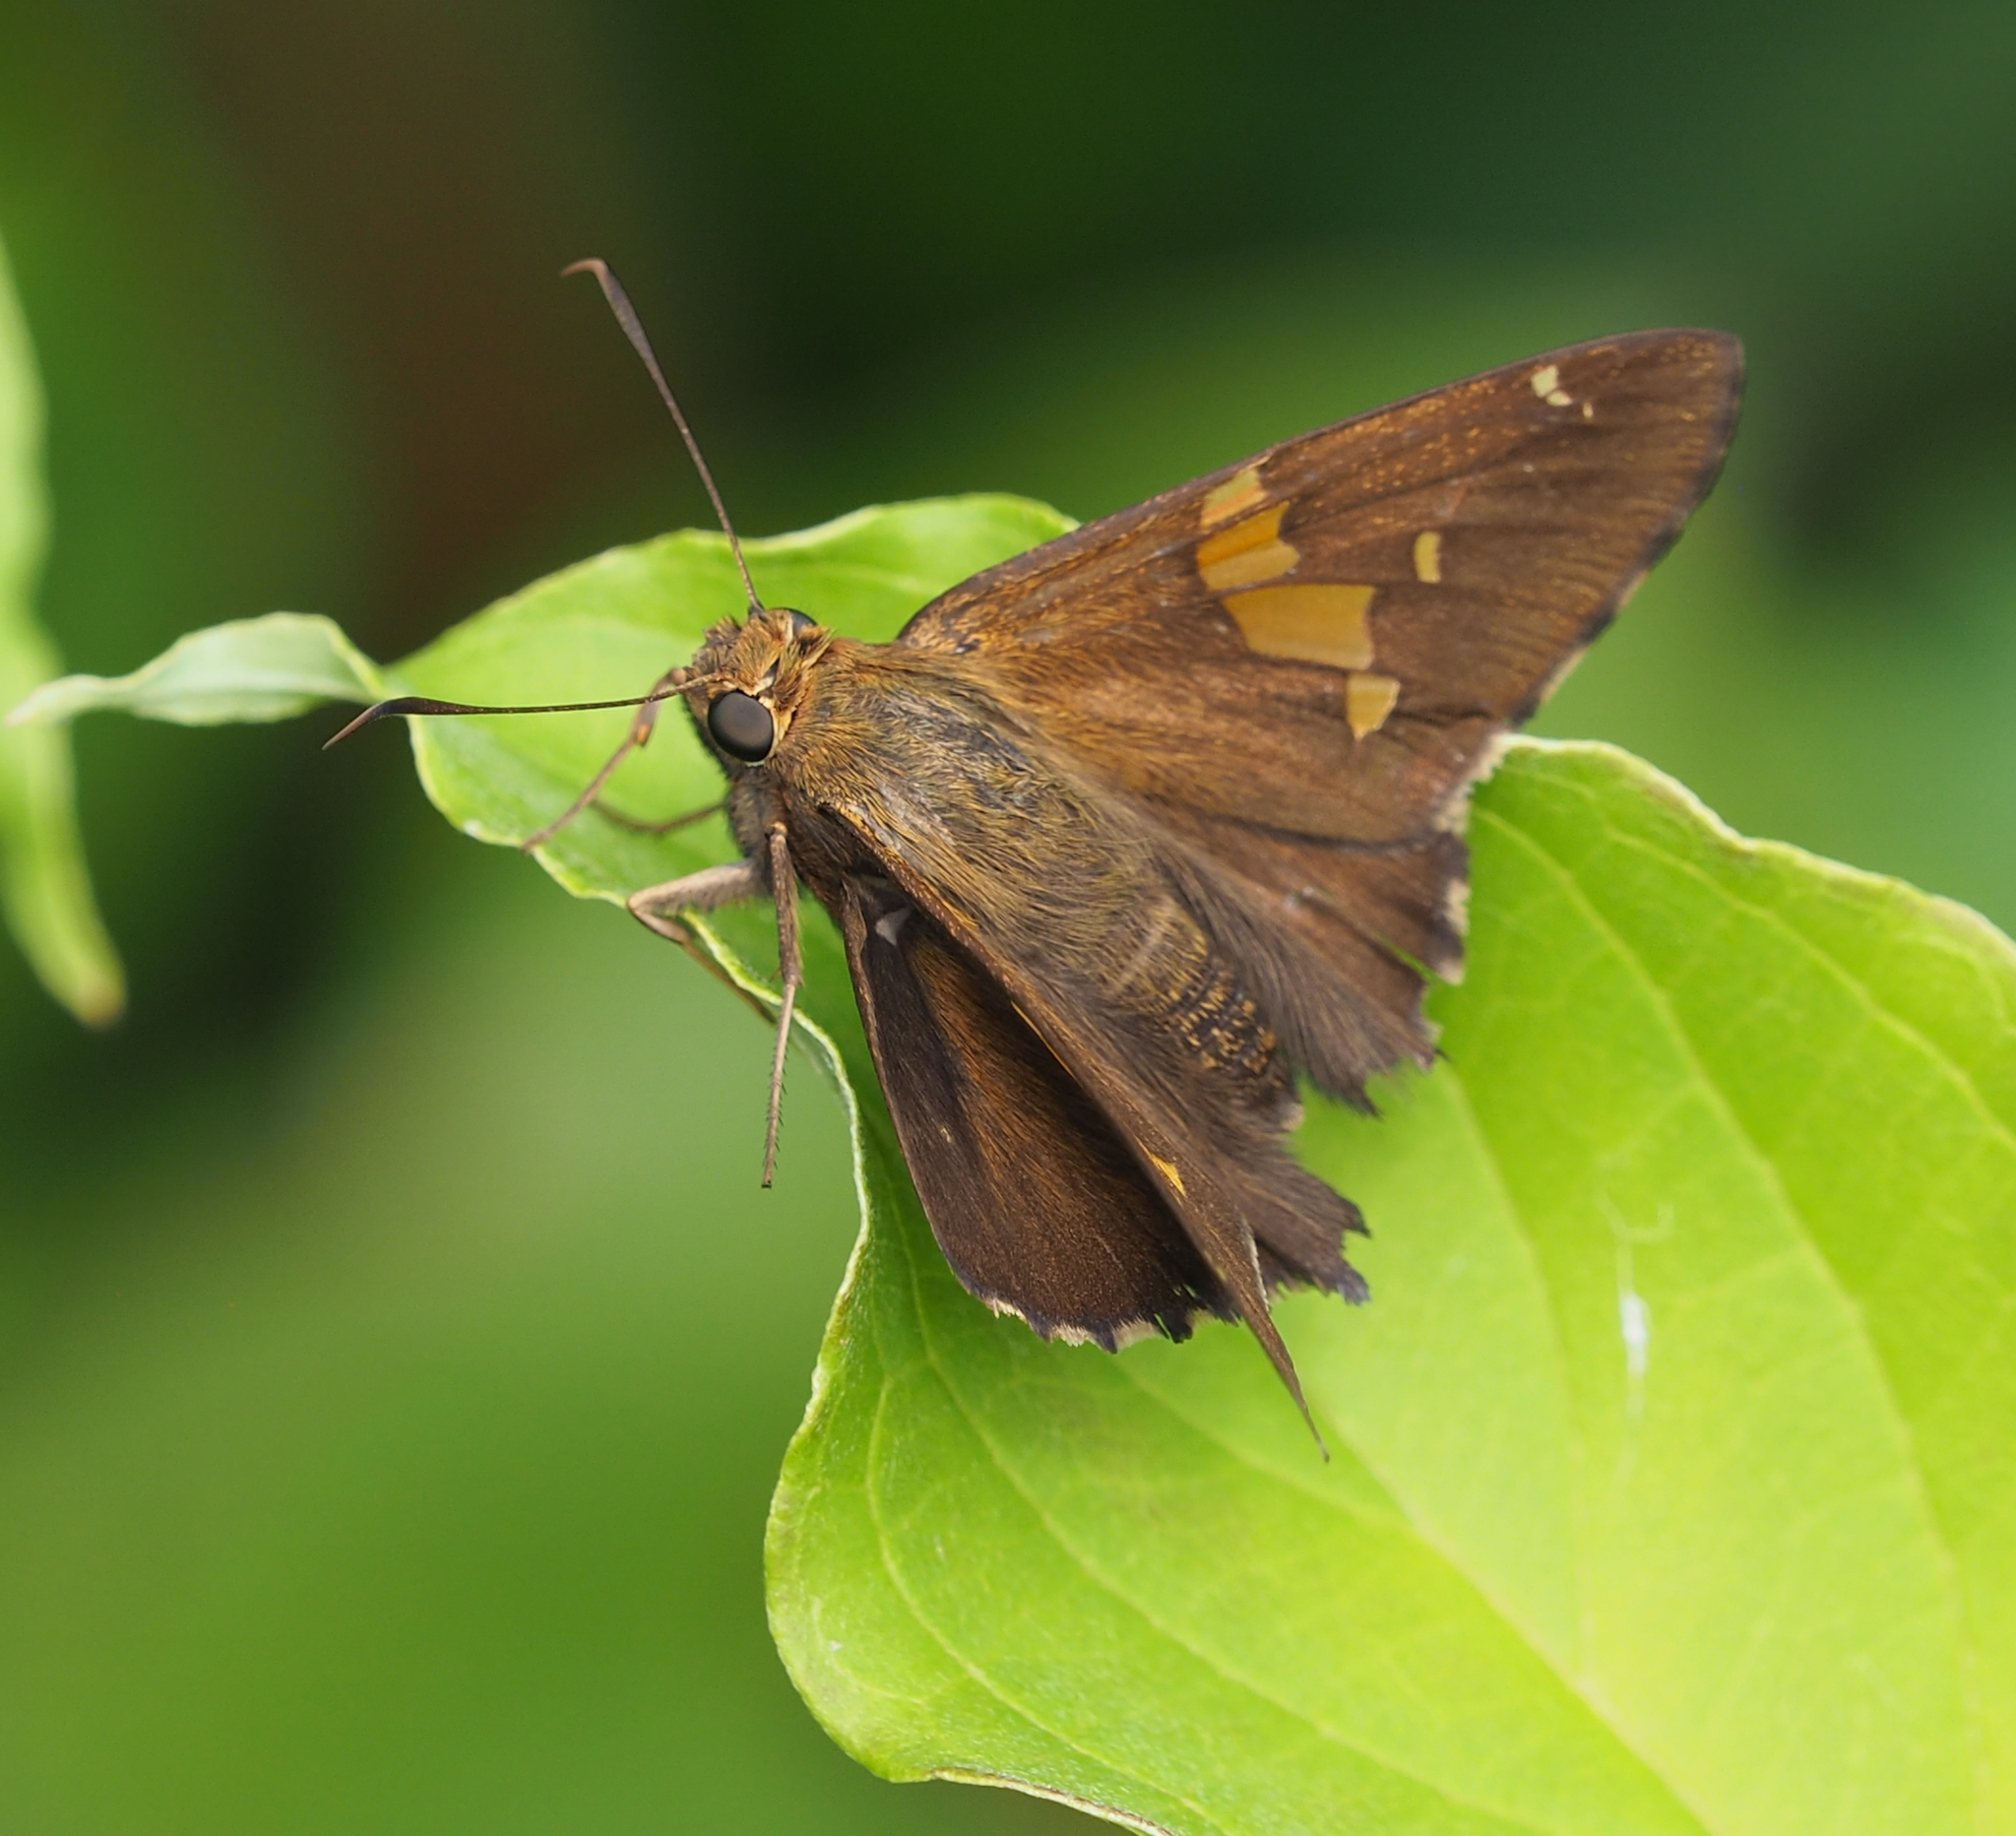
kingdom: Animalia
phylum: Arthropoda
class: Insecta
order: Lepidoptera
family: Hesperiidae
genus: Epargyreus
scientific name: Epargyreus clarus
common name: Silver-spotted skipper
